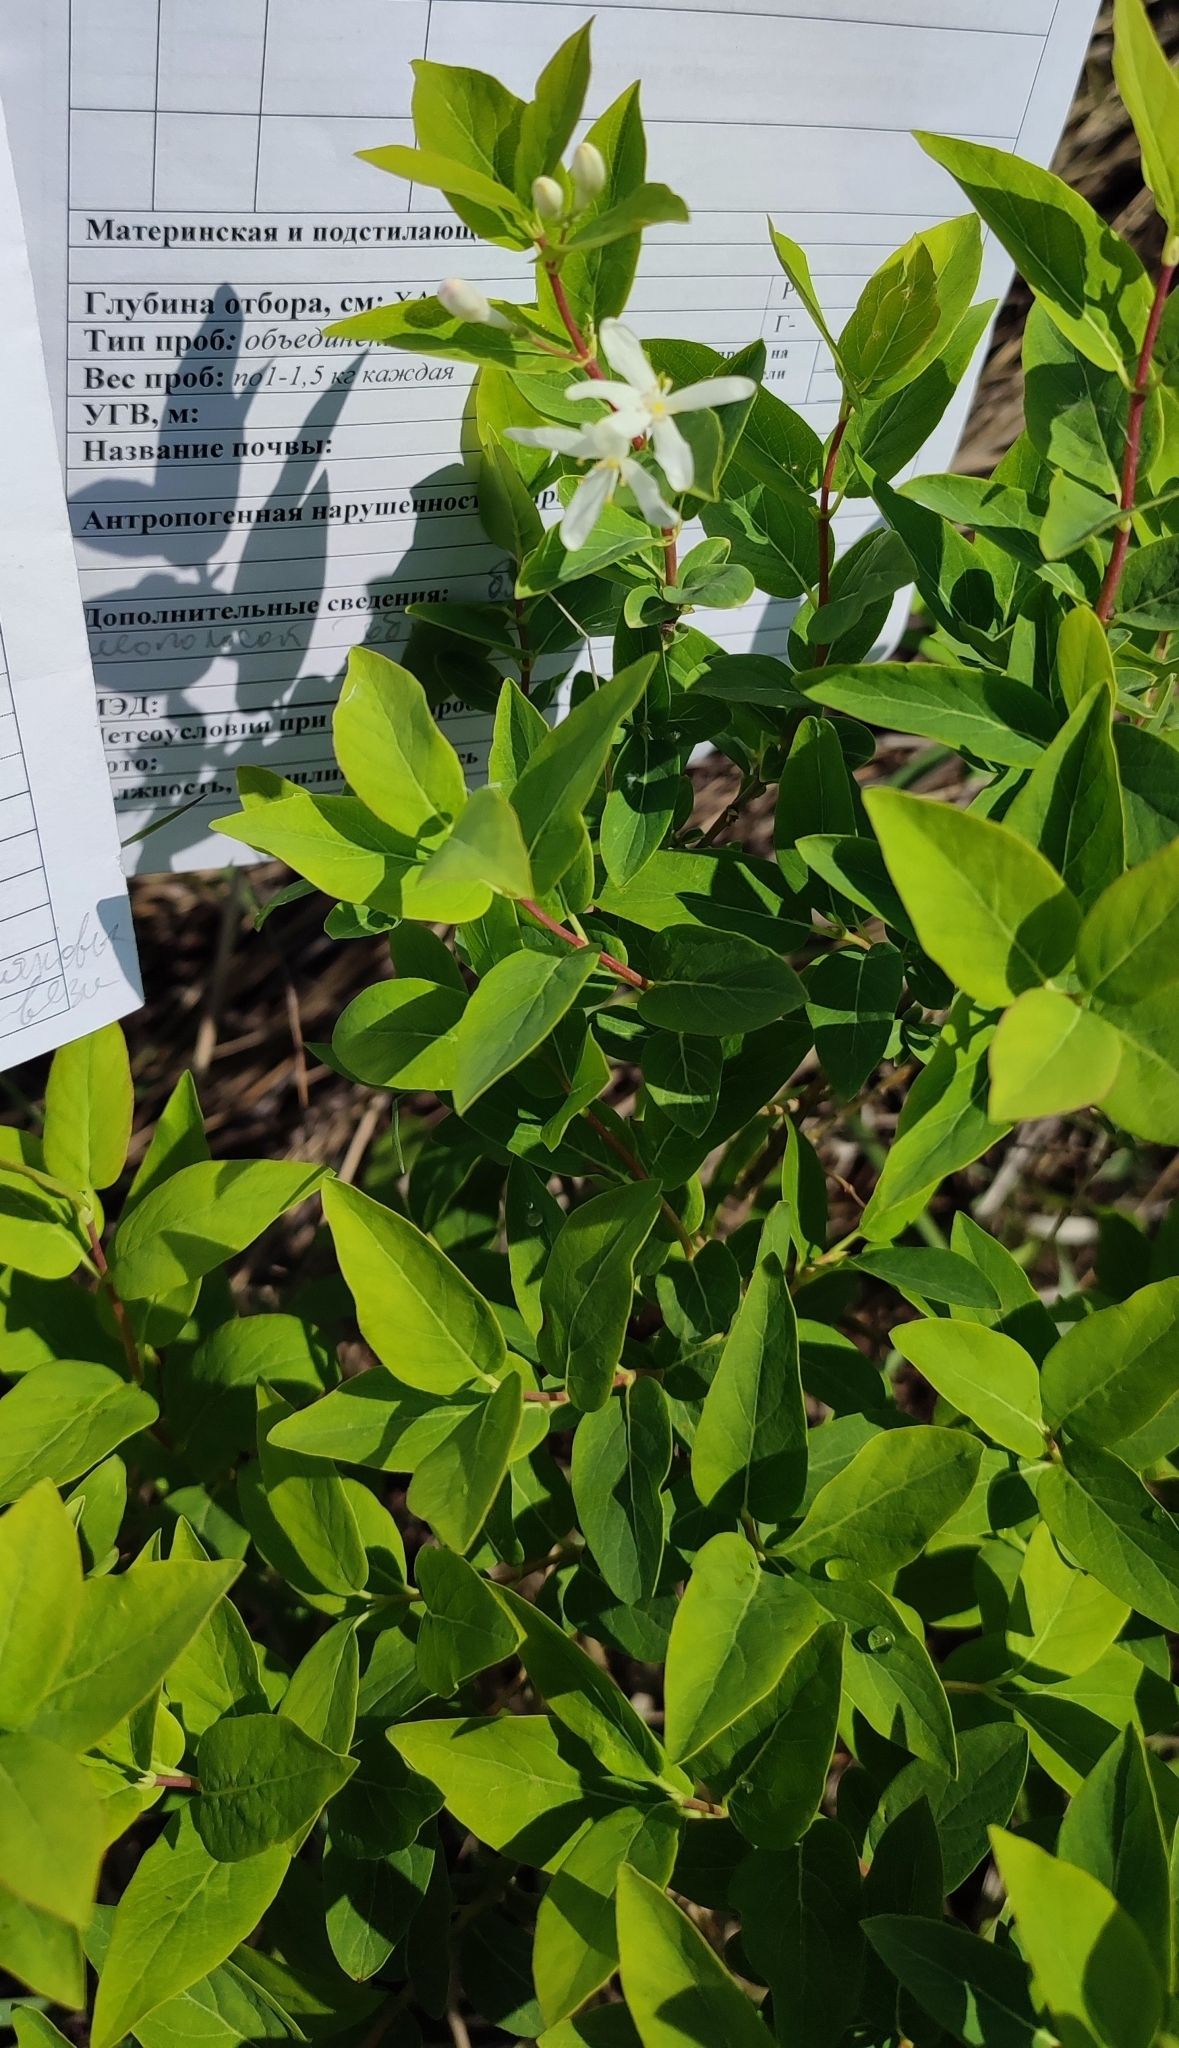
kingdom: Plantae
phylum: Tracheophyta
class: Magnoliopsida
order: Rosales
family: Rosaceae
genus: Malus
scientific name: Malus baccata
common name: Siberian crab
